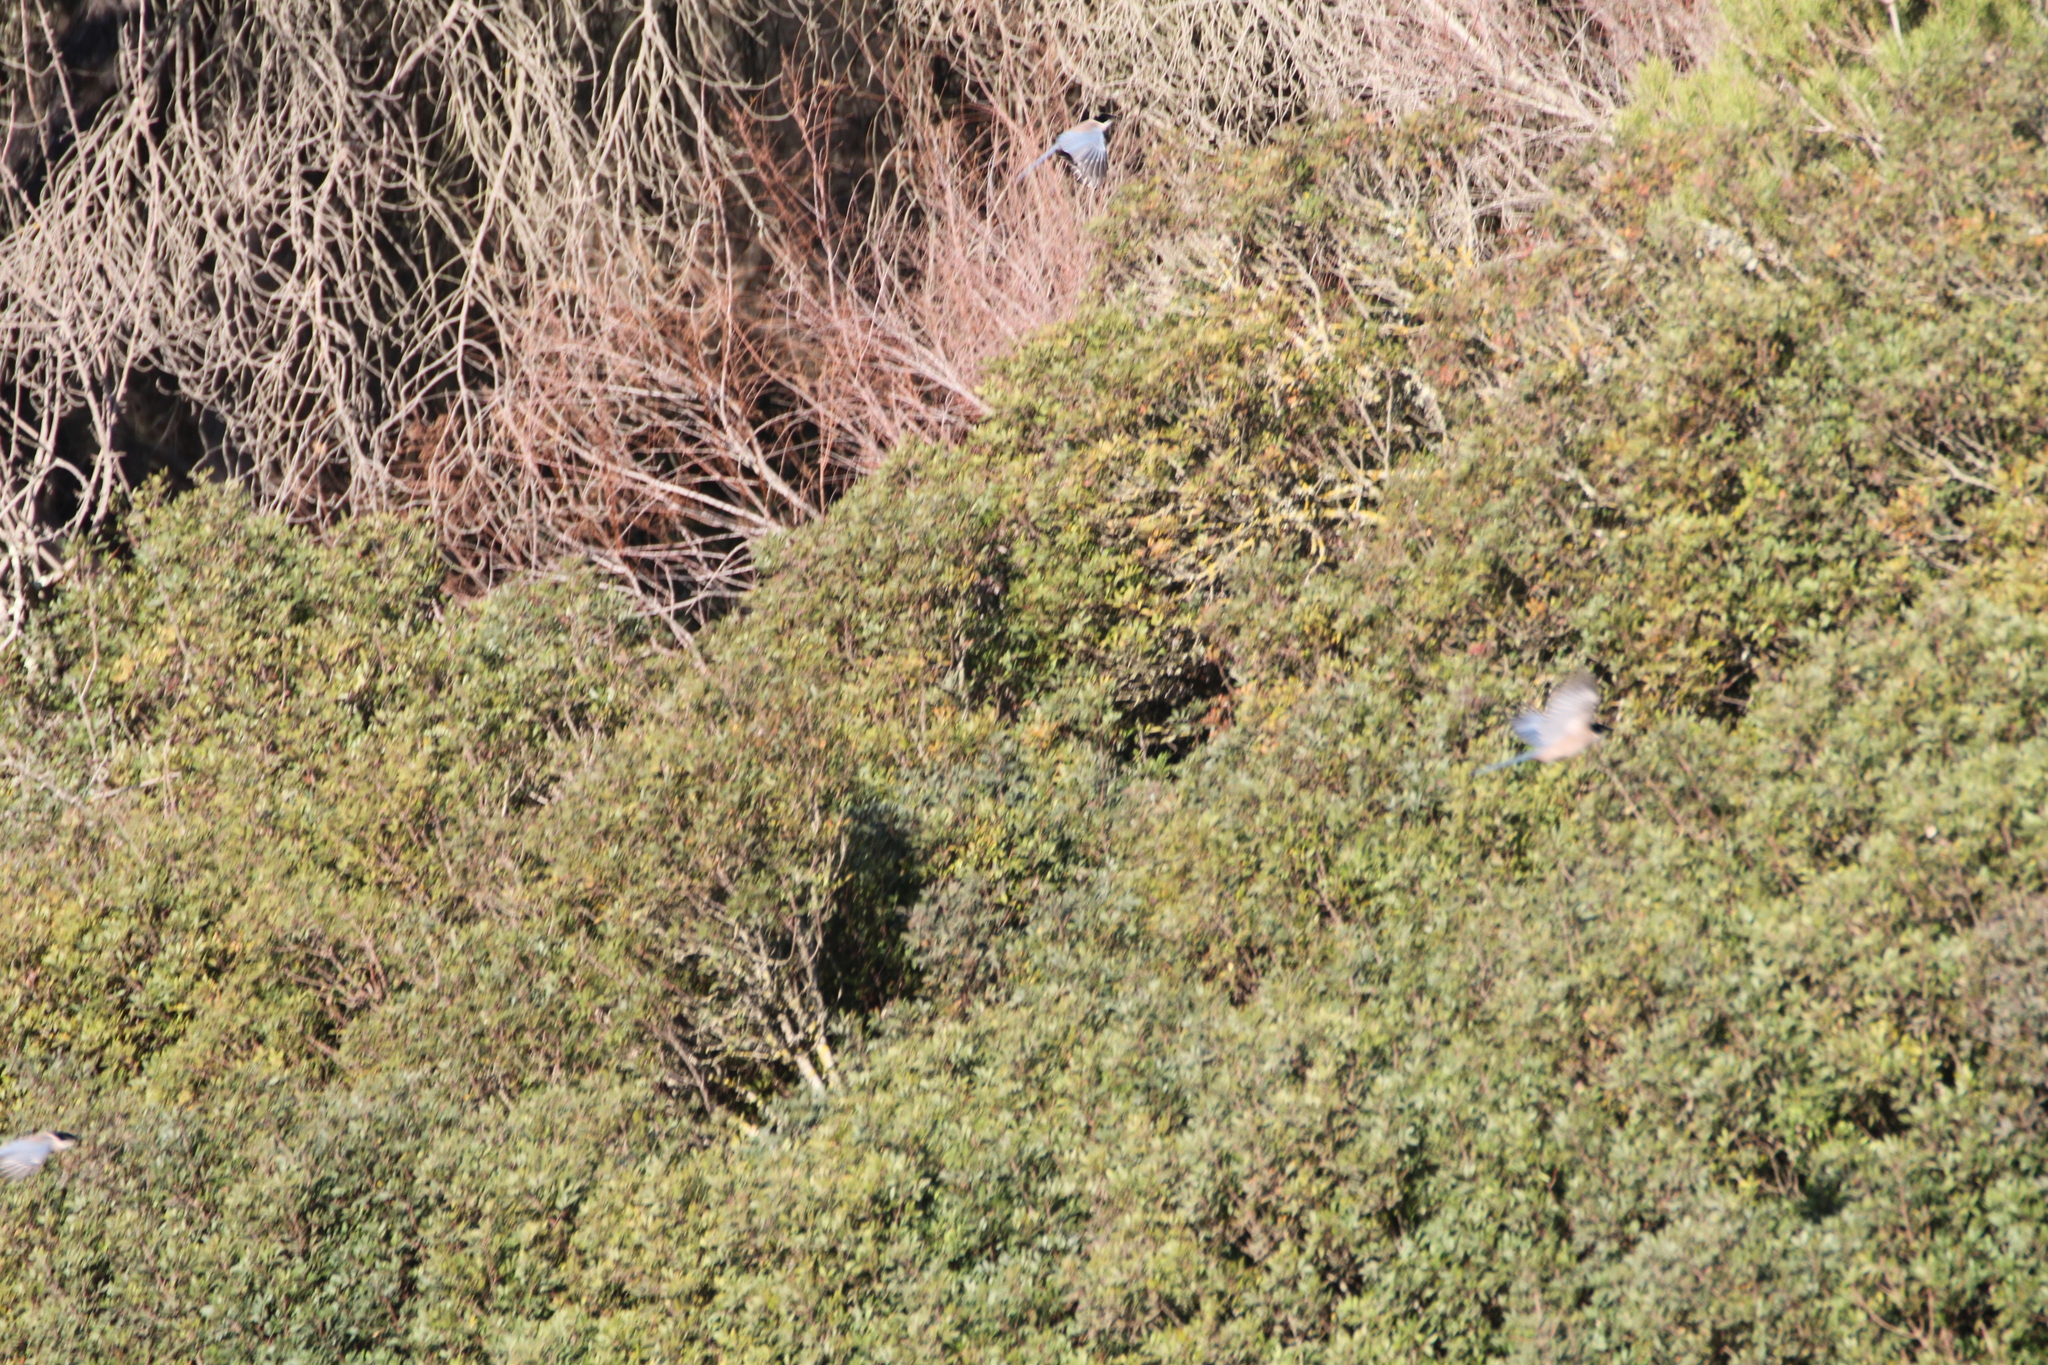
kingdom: Animalia
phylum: Chordata
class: Aves
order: Passeriformes
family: Corvidae
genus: Cyanopica
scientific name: Cyanopica cooki
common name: Iberian magpie
